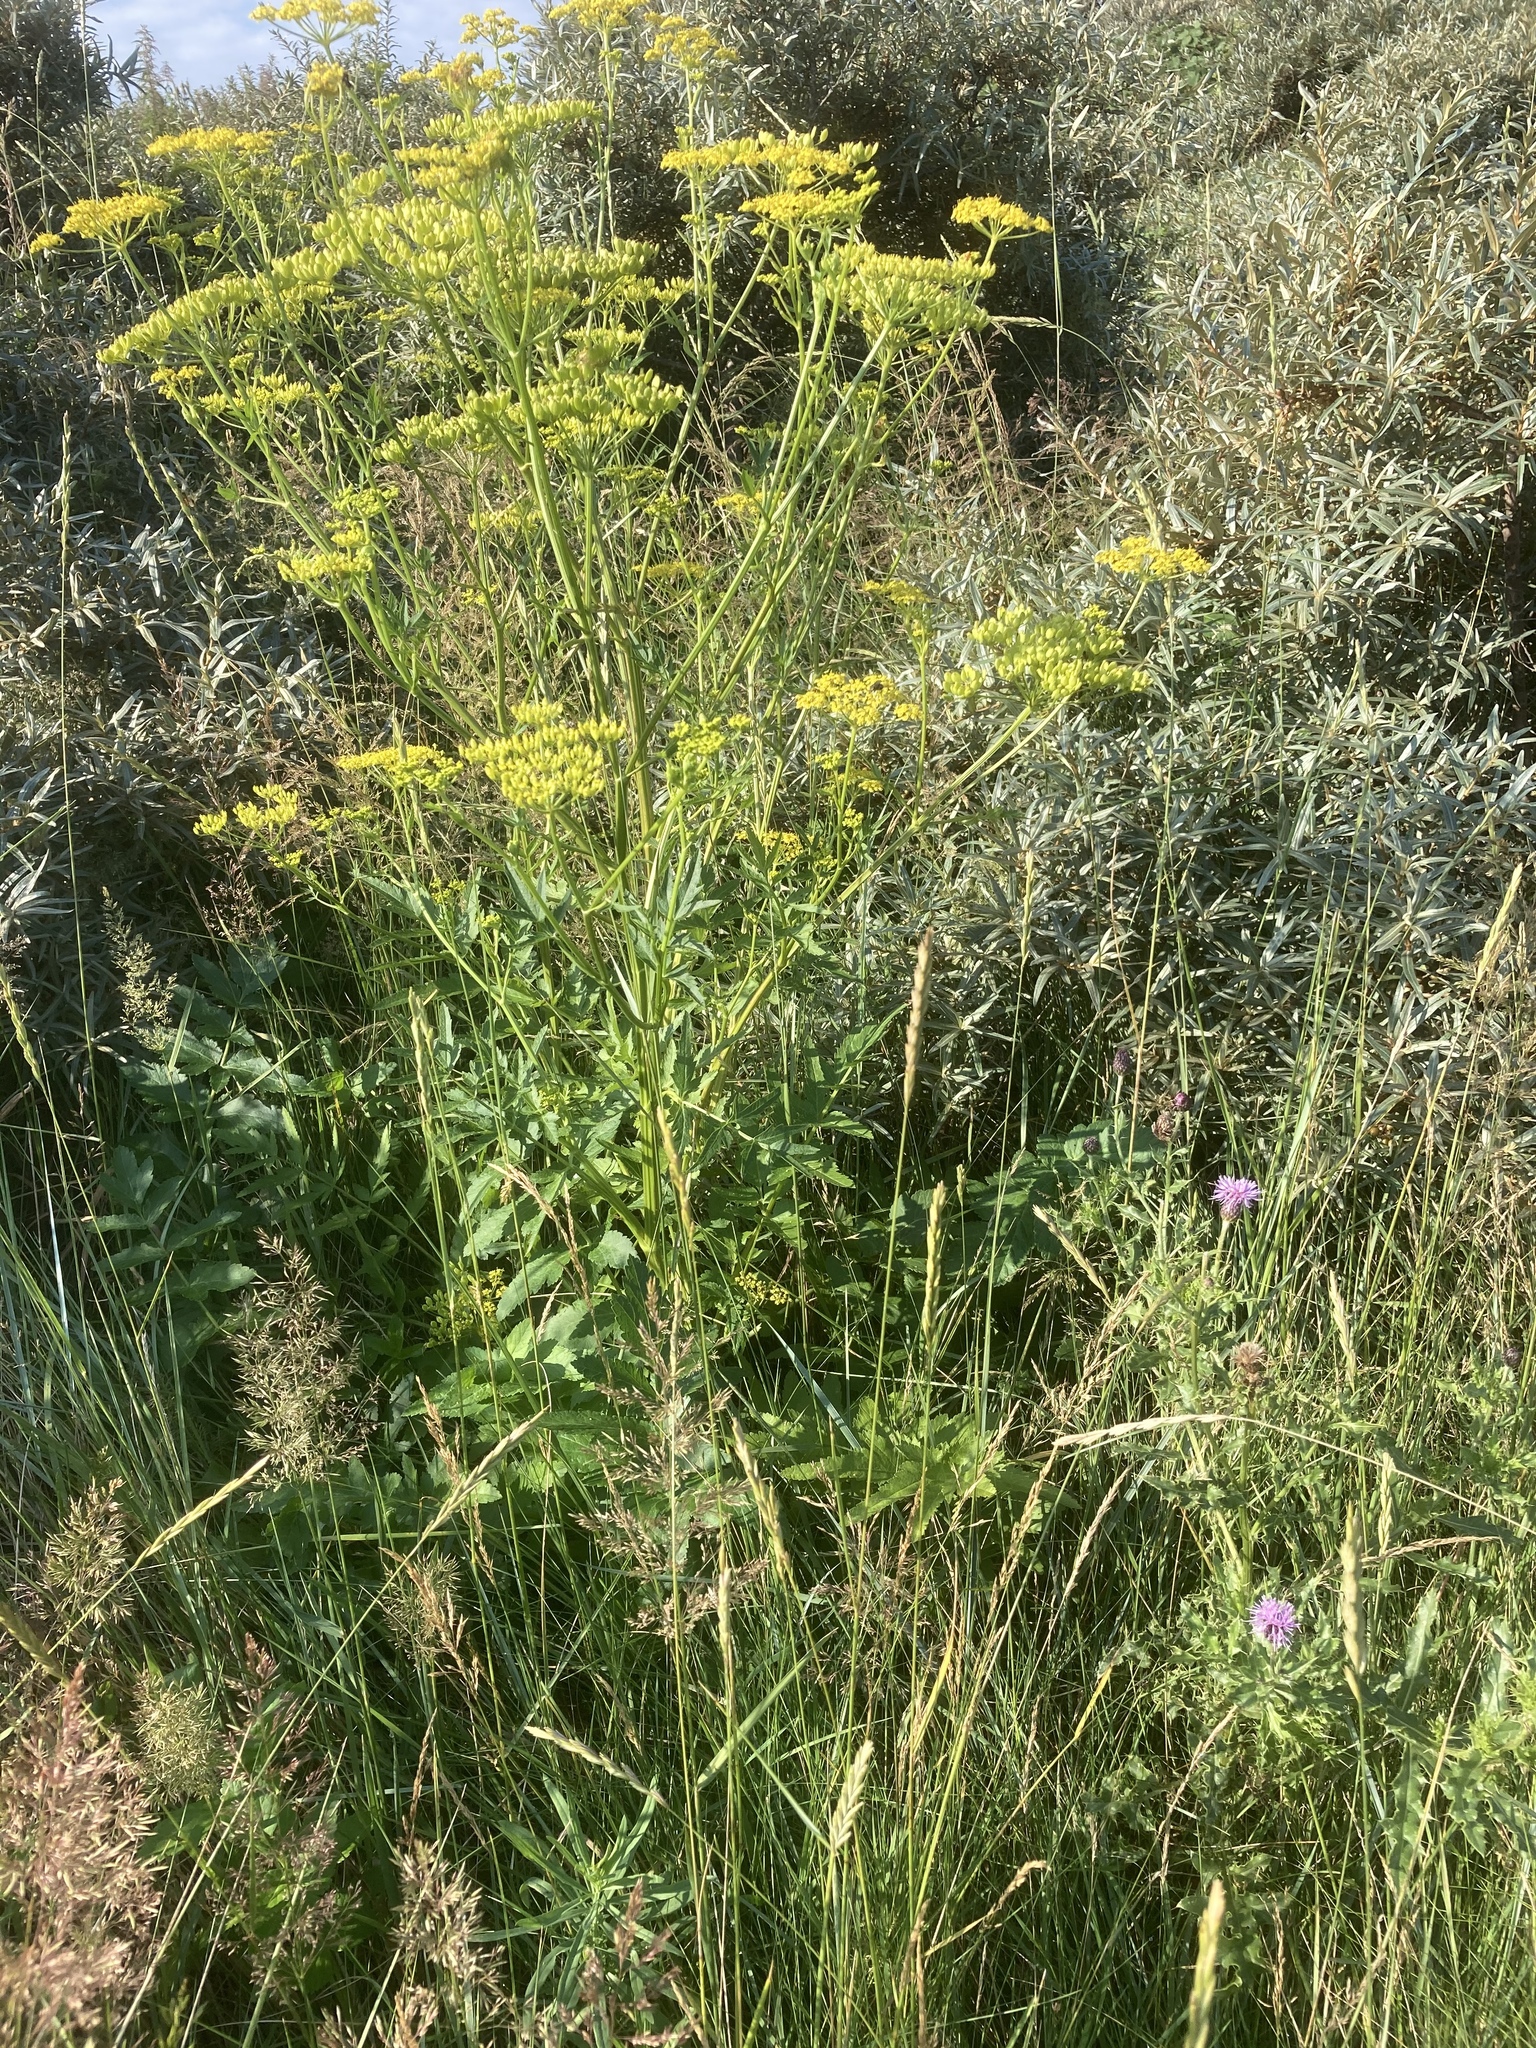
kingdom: Plantae
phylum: Tracheophyta
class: Magnoliopsida
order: Apiales
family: Apiaceae
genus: Pastinaca
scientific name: Pastinaca sativa
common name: Wild parsnip
